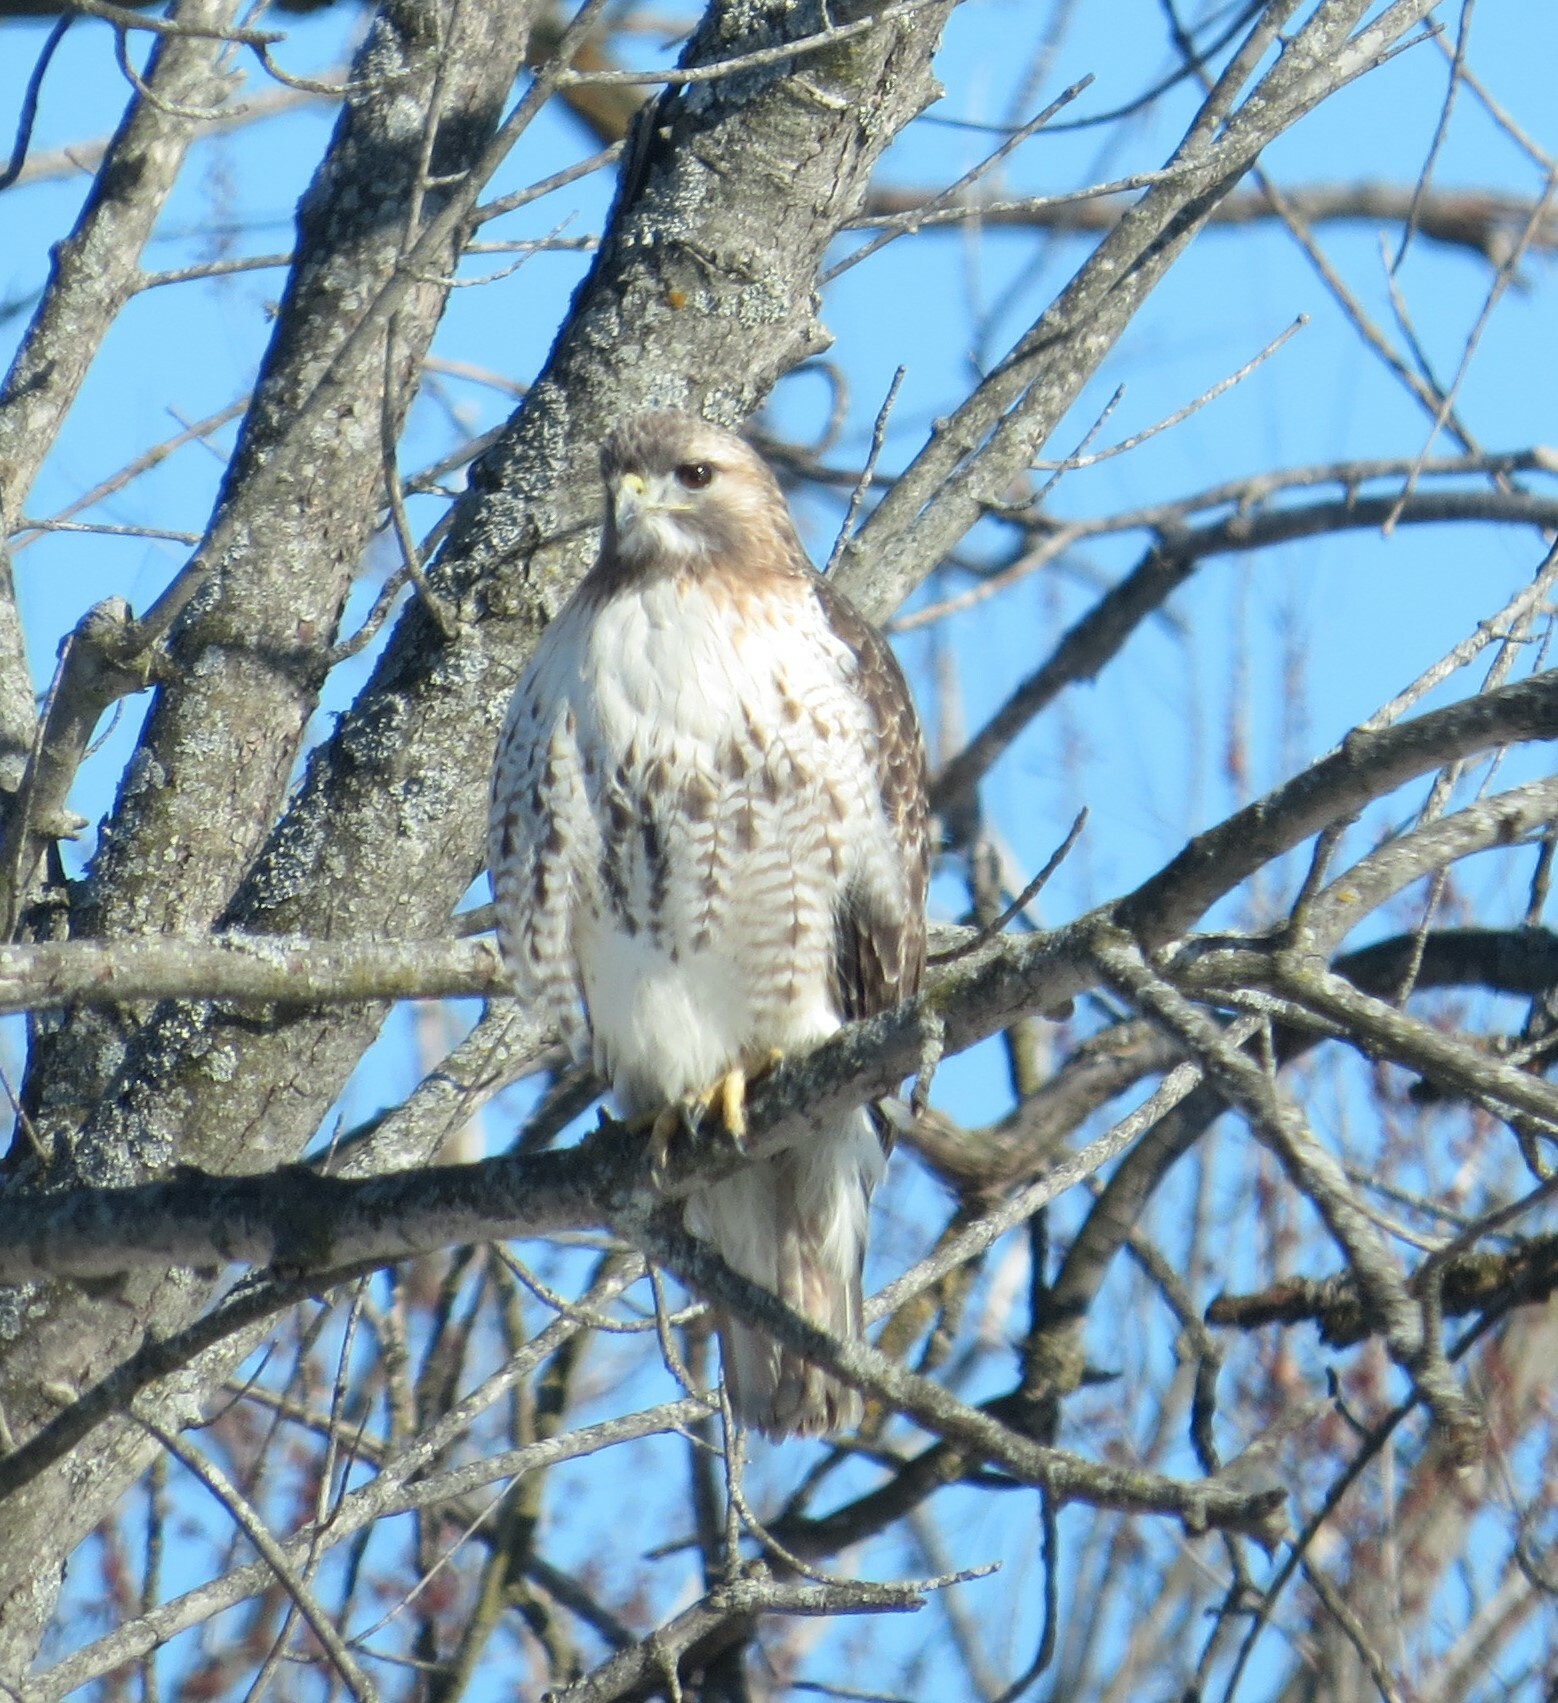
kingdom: Animalia
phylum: Chordata
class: Aves
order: Accipitriformes
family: Accipitridae
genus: Buteo
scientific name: Buteo jamaicensis
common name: Red-tailed hawk
